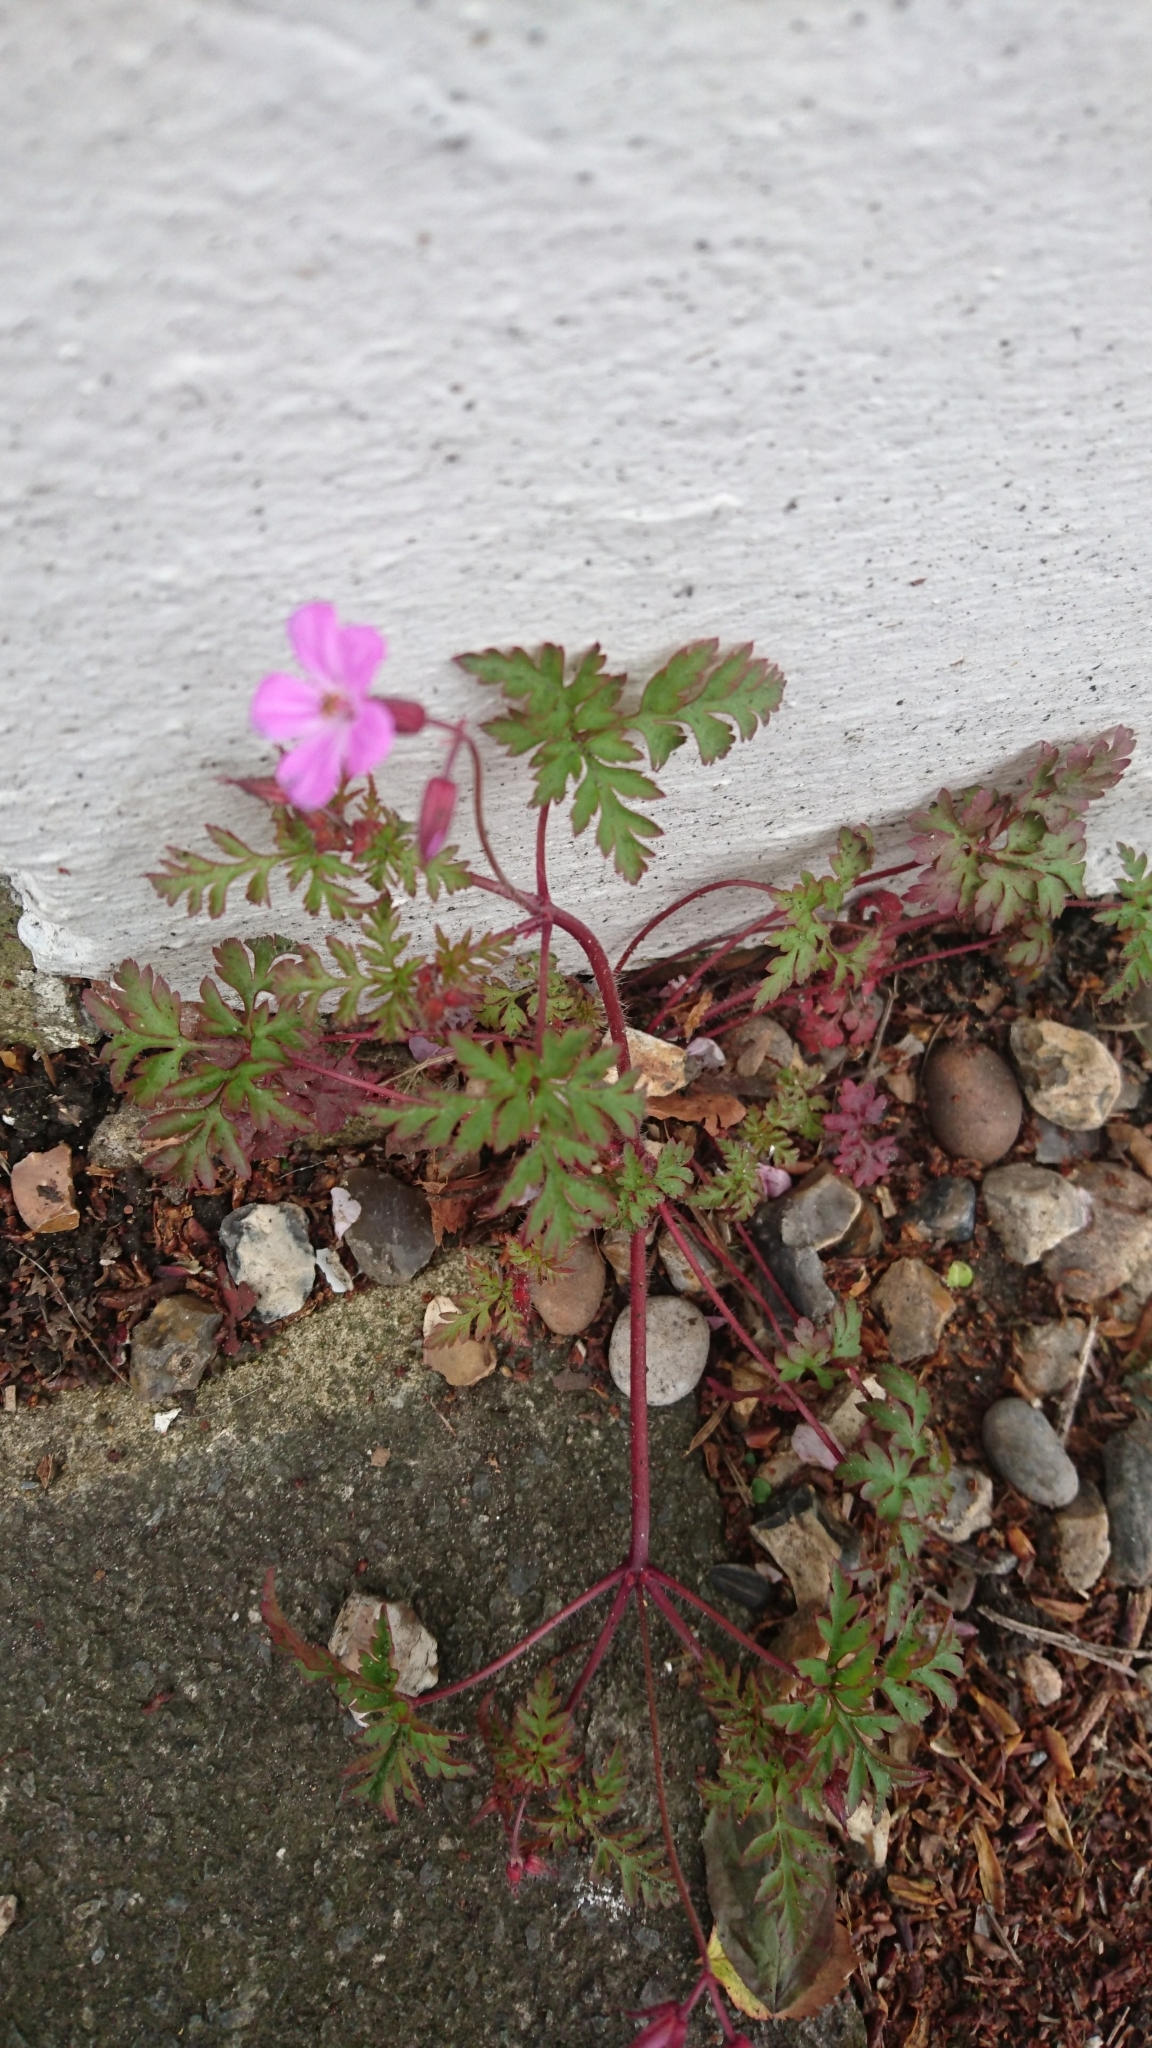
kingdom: Plantae
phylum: Tracheophyta
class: Magnoliopsida
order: Geraniales
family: Geraniaceae
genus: Geranium
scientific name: Geranium robertianum
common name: Herb-robert
